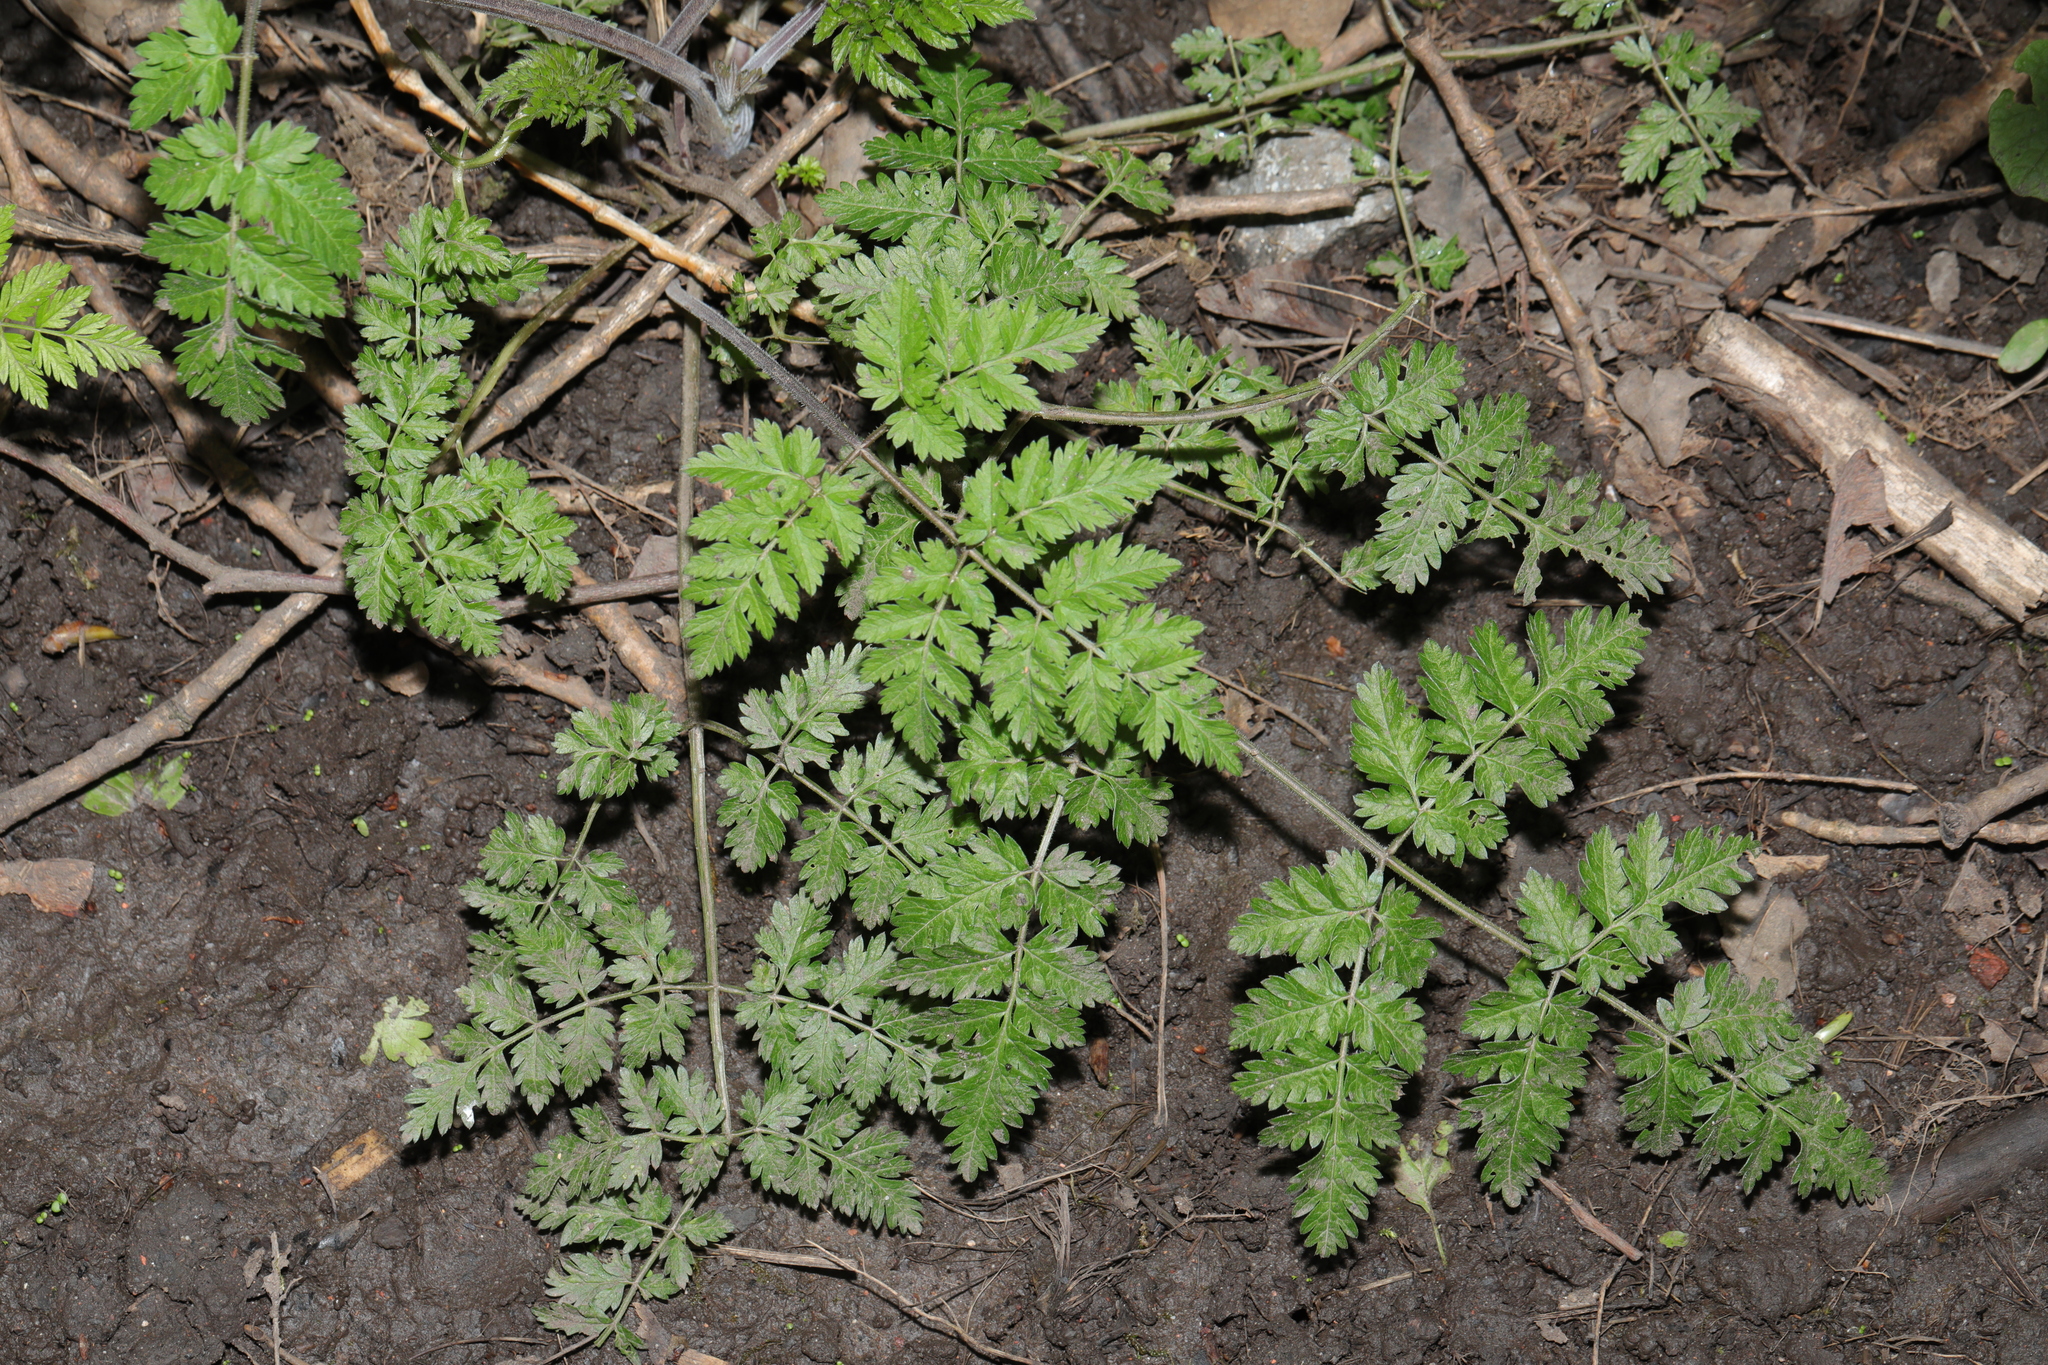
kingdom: Plantae
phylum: Tracheophyta
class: Magnoliopsida
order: Apiales
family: Apiaceae
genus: Anthriscus
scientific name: Anthriscus sylvestris
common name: Cow parsley
